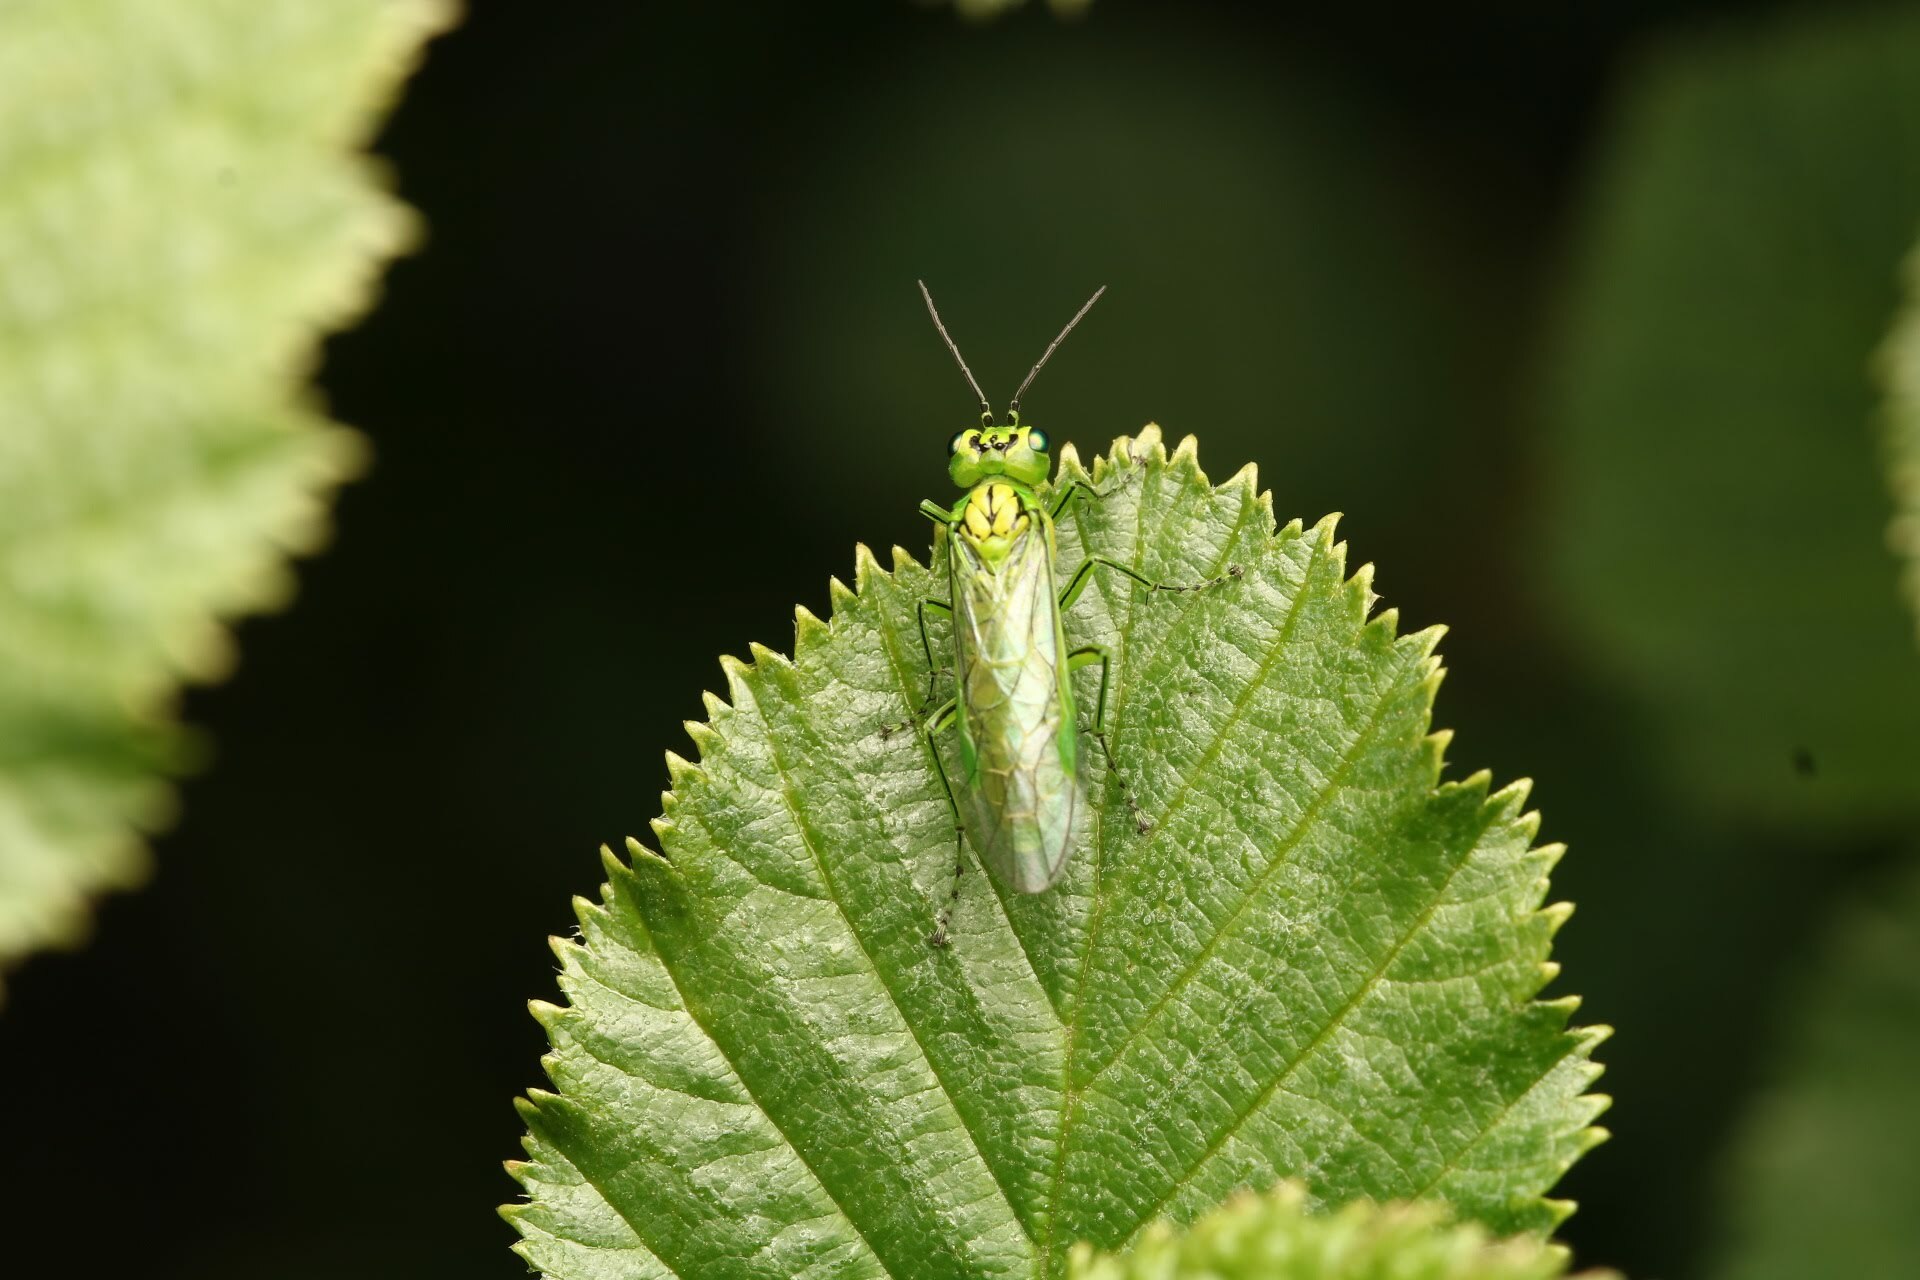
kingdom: Animalia
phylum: Arthropoda
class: Insecta
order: Hymenoptera
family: Tenthredinidae
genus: Rhogogaster
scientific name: Rhogogaster punctulata
